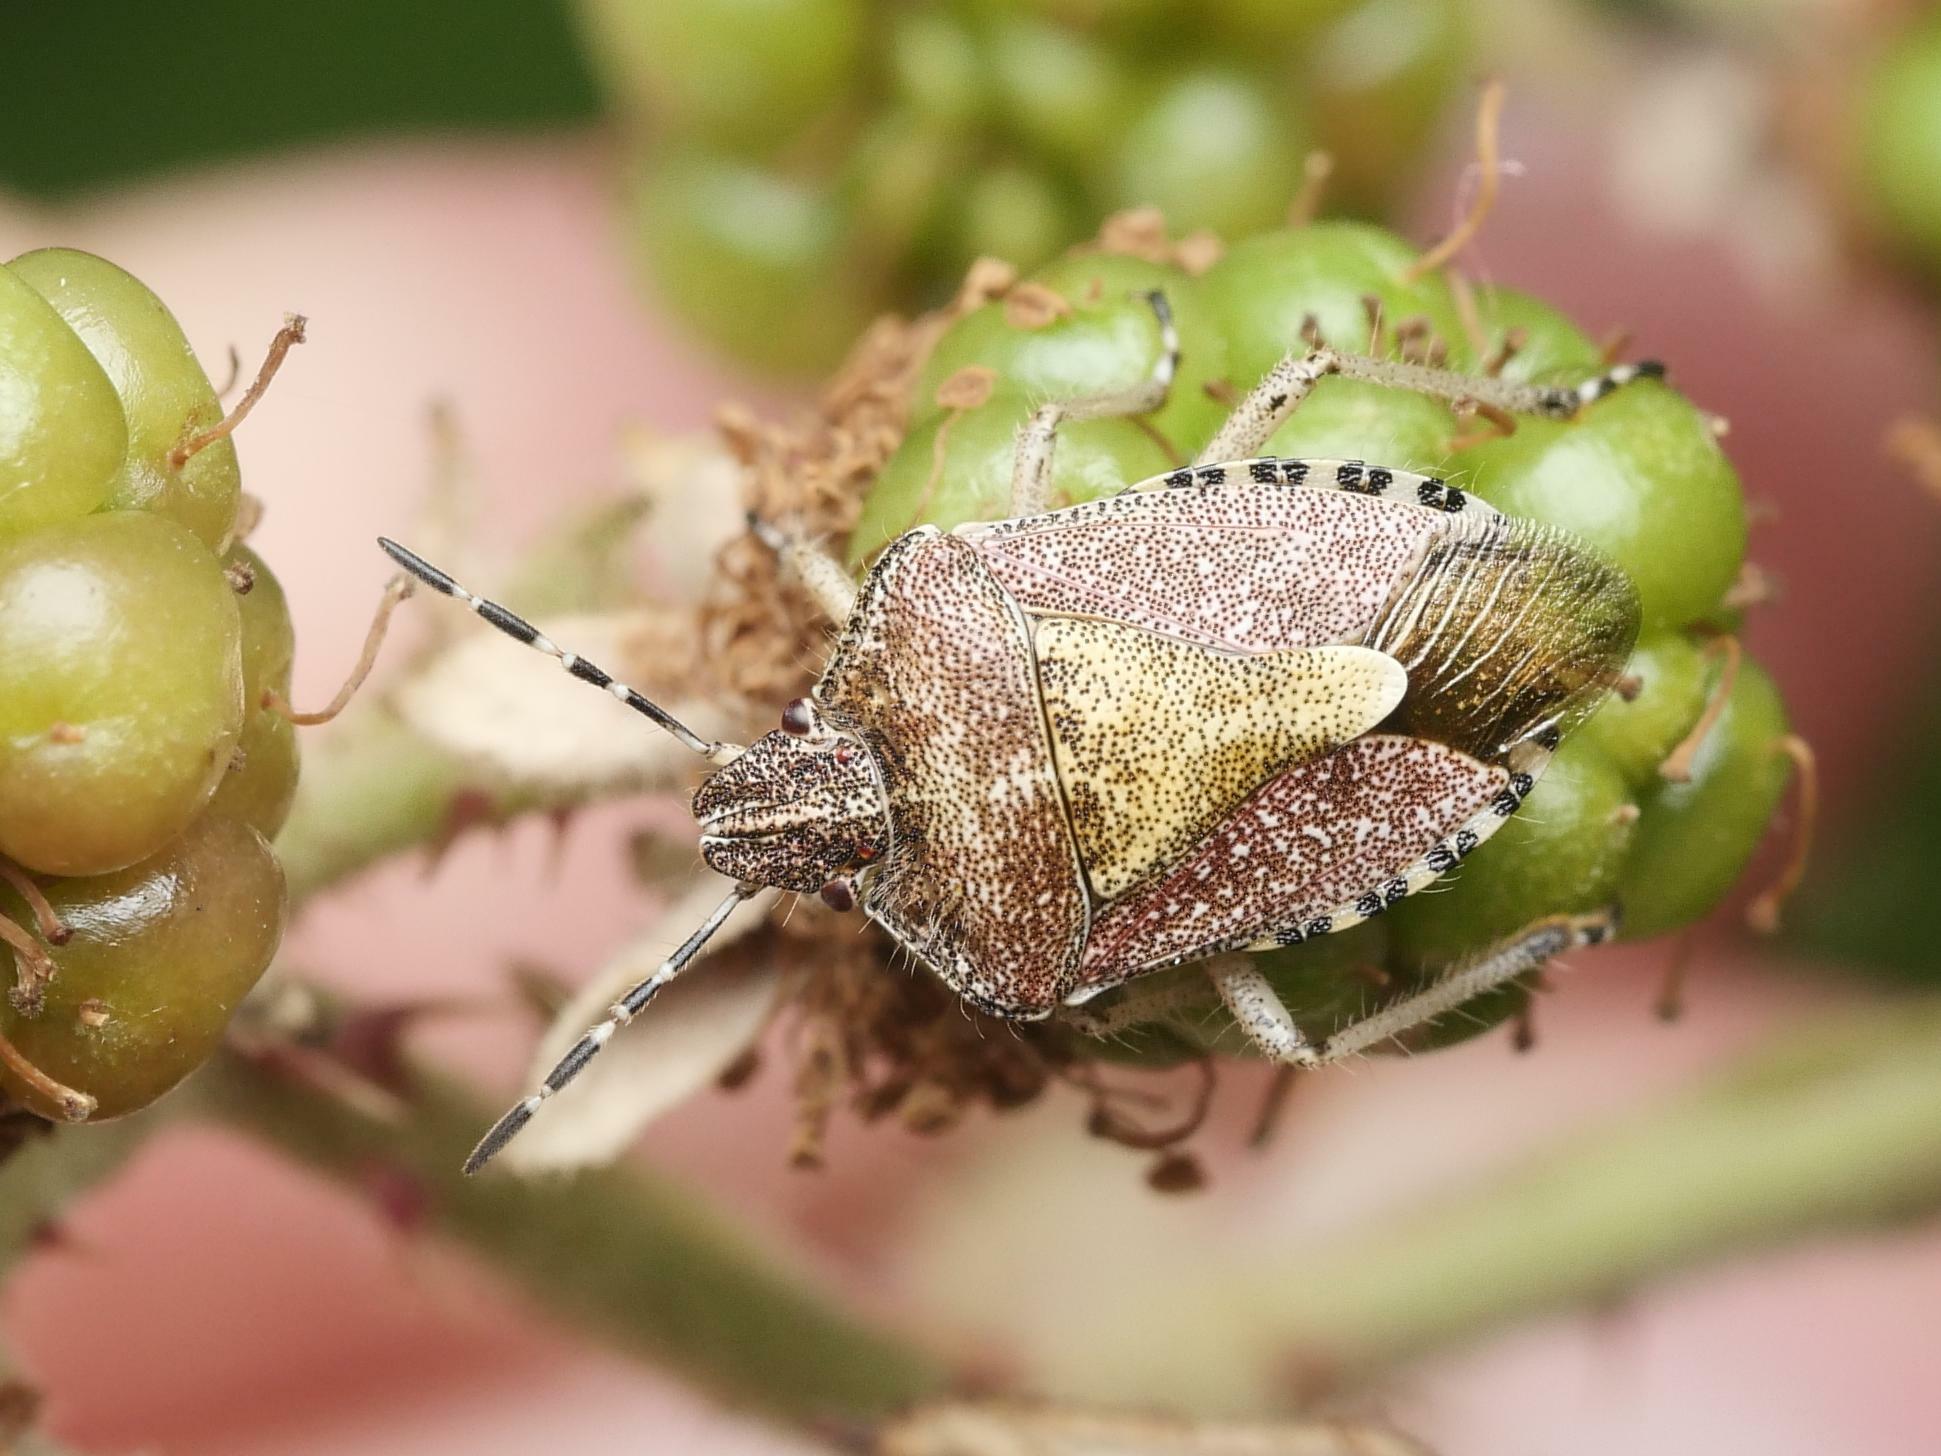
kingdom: Animalia
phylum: Arthropoda
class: Insecta
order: Hemiptera
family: Pentatomidae
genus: Dolycoris
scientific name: Dolycoris baccarum
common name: Sloe bug
